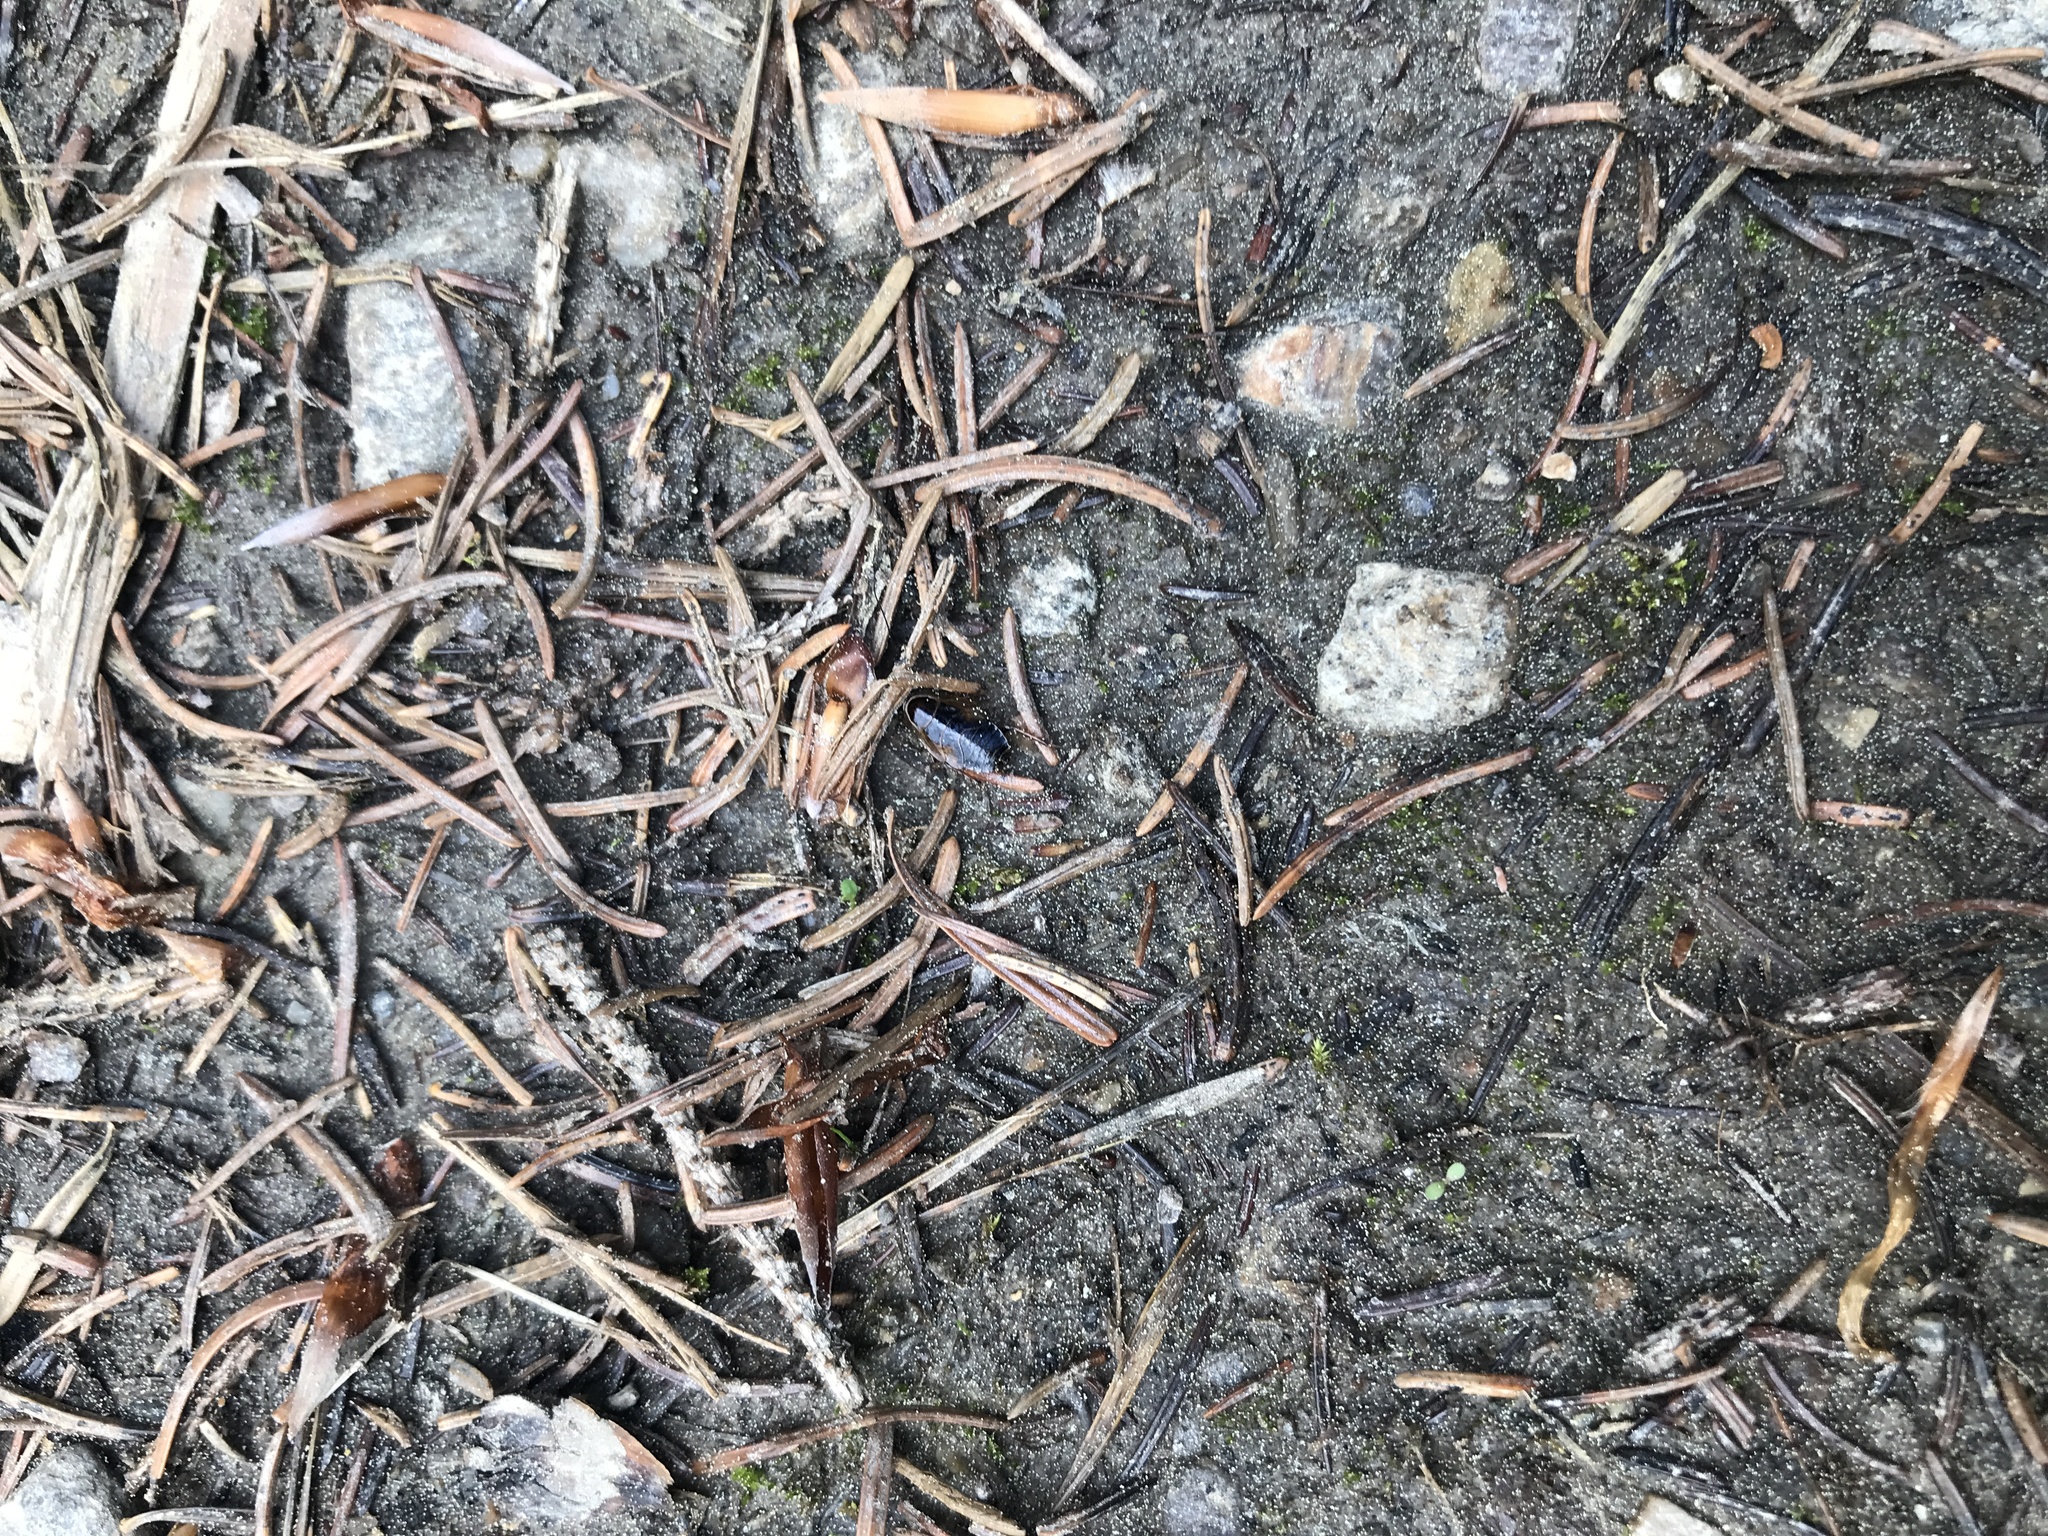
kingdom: Animalia
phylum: Arthropoda
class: Insecta
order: Blattodea
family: Ectobiidae
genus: Ectobius
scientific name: Ectobius sylvestris
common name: Forest cockroach
